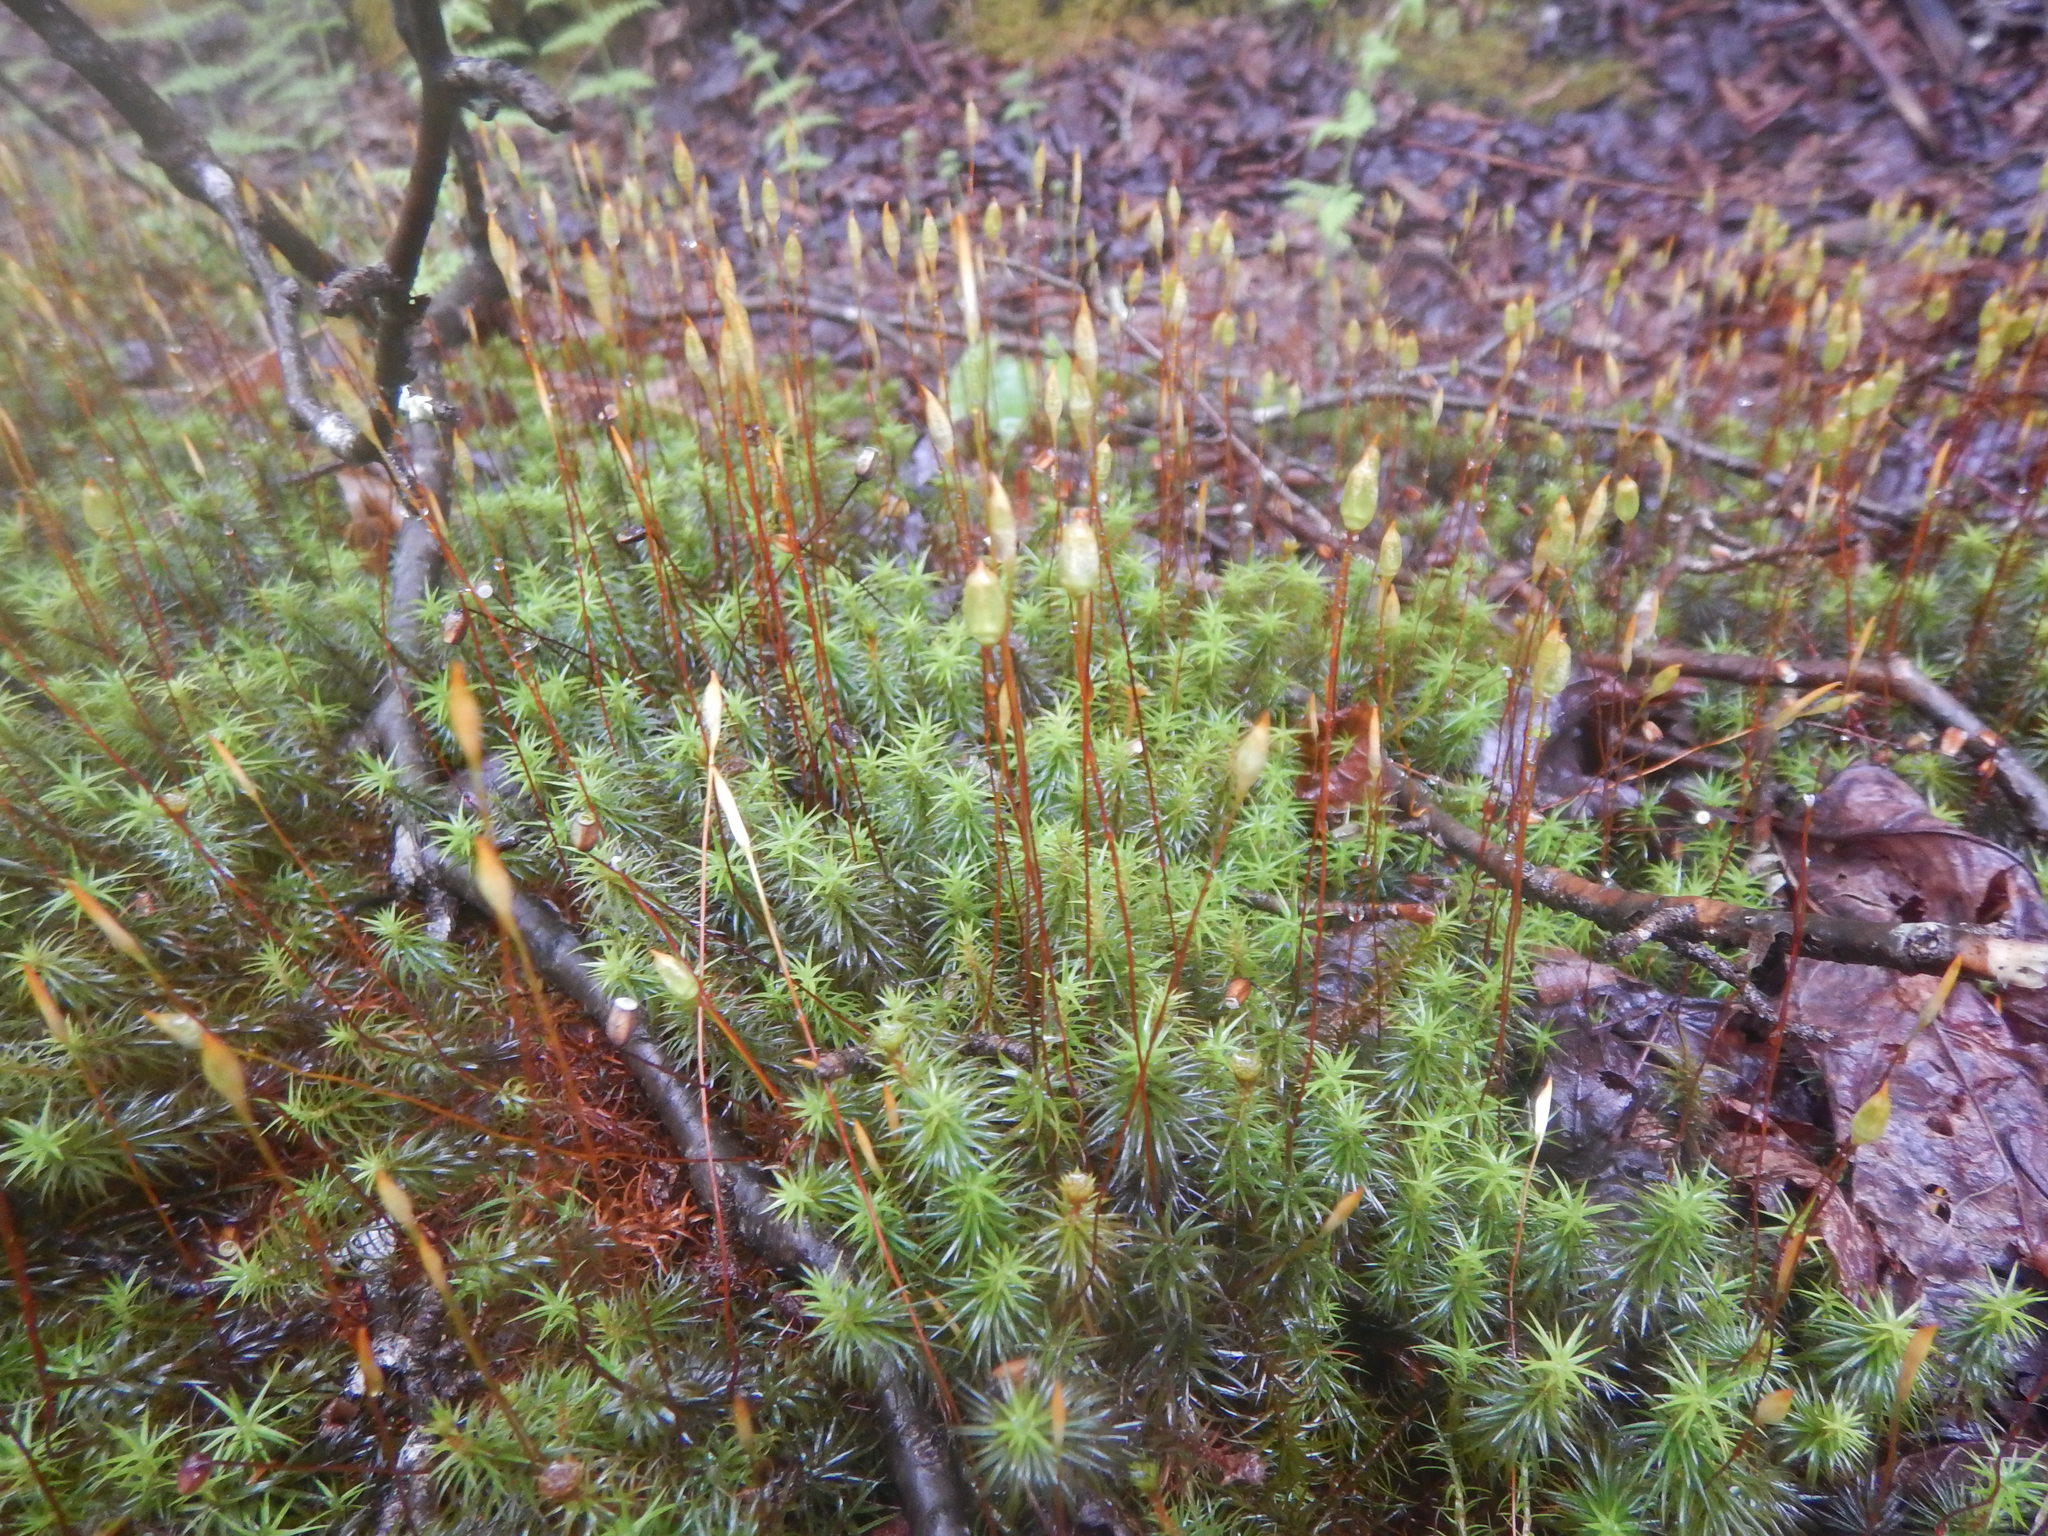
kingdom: Plantae
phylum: Bryophyta
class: Polytrichopsida
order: Polytrichales
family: Polytrichaceae
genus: Polytrichum
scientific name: Polytrichum commune
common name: Common haircap
